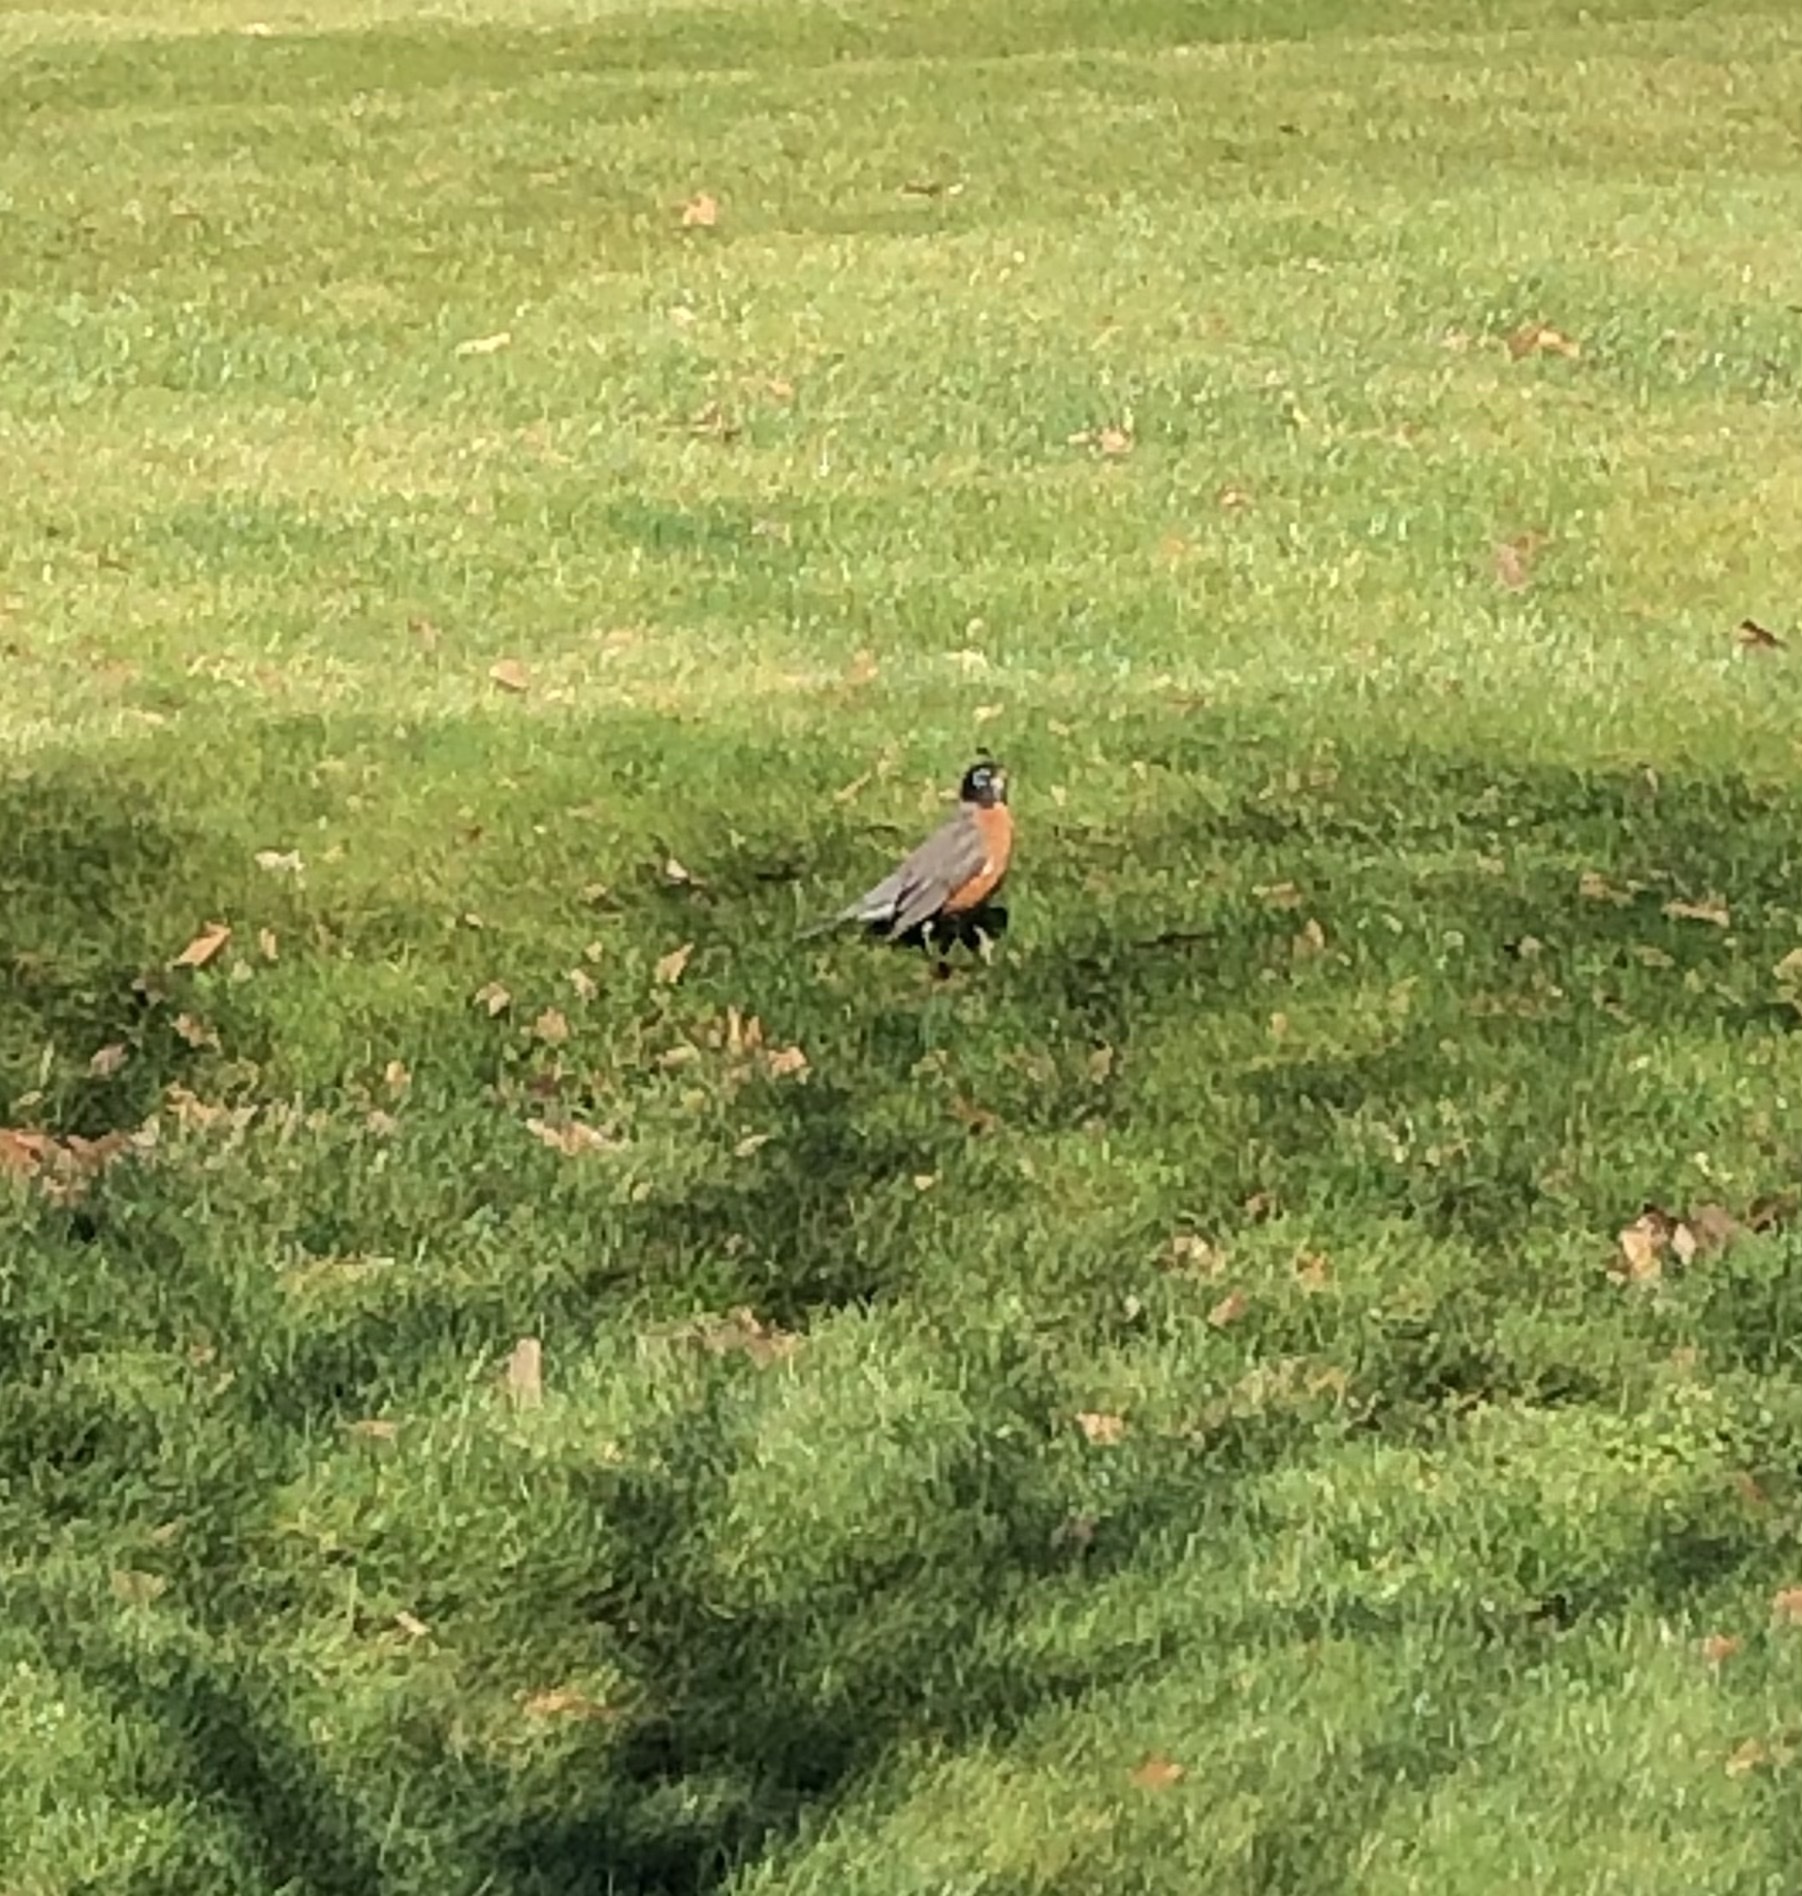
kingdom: Animalia
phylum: Chordata
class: Aves
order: Passeriformes
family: Turdidae
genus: Turdus
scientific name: Turdus migratorius
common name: American robin
